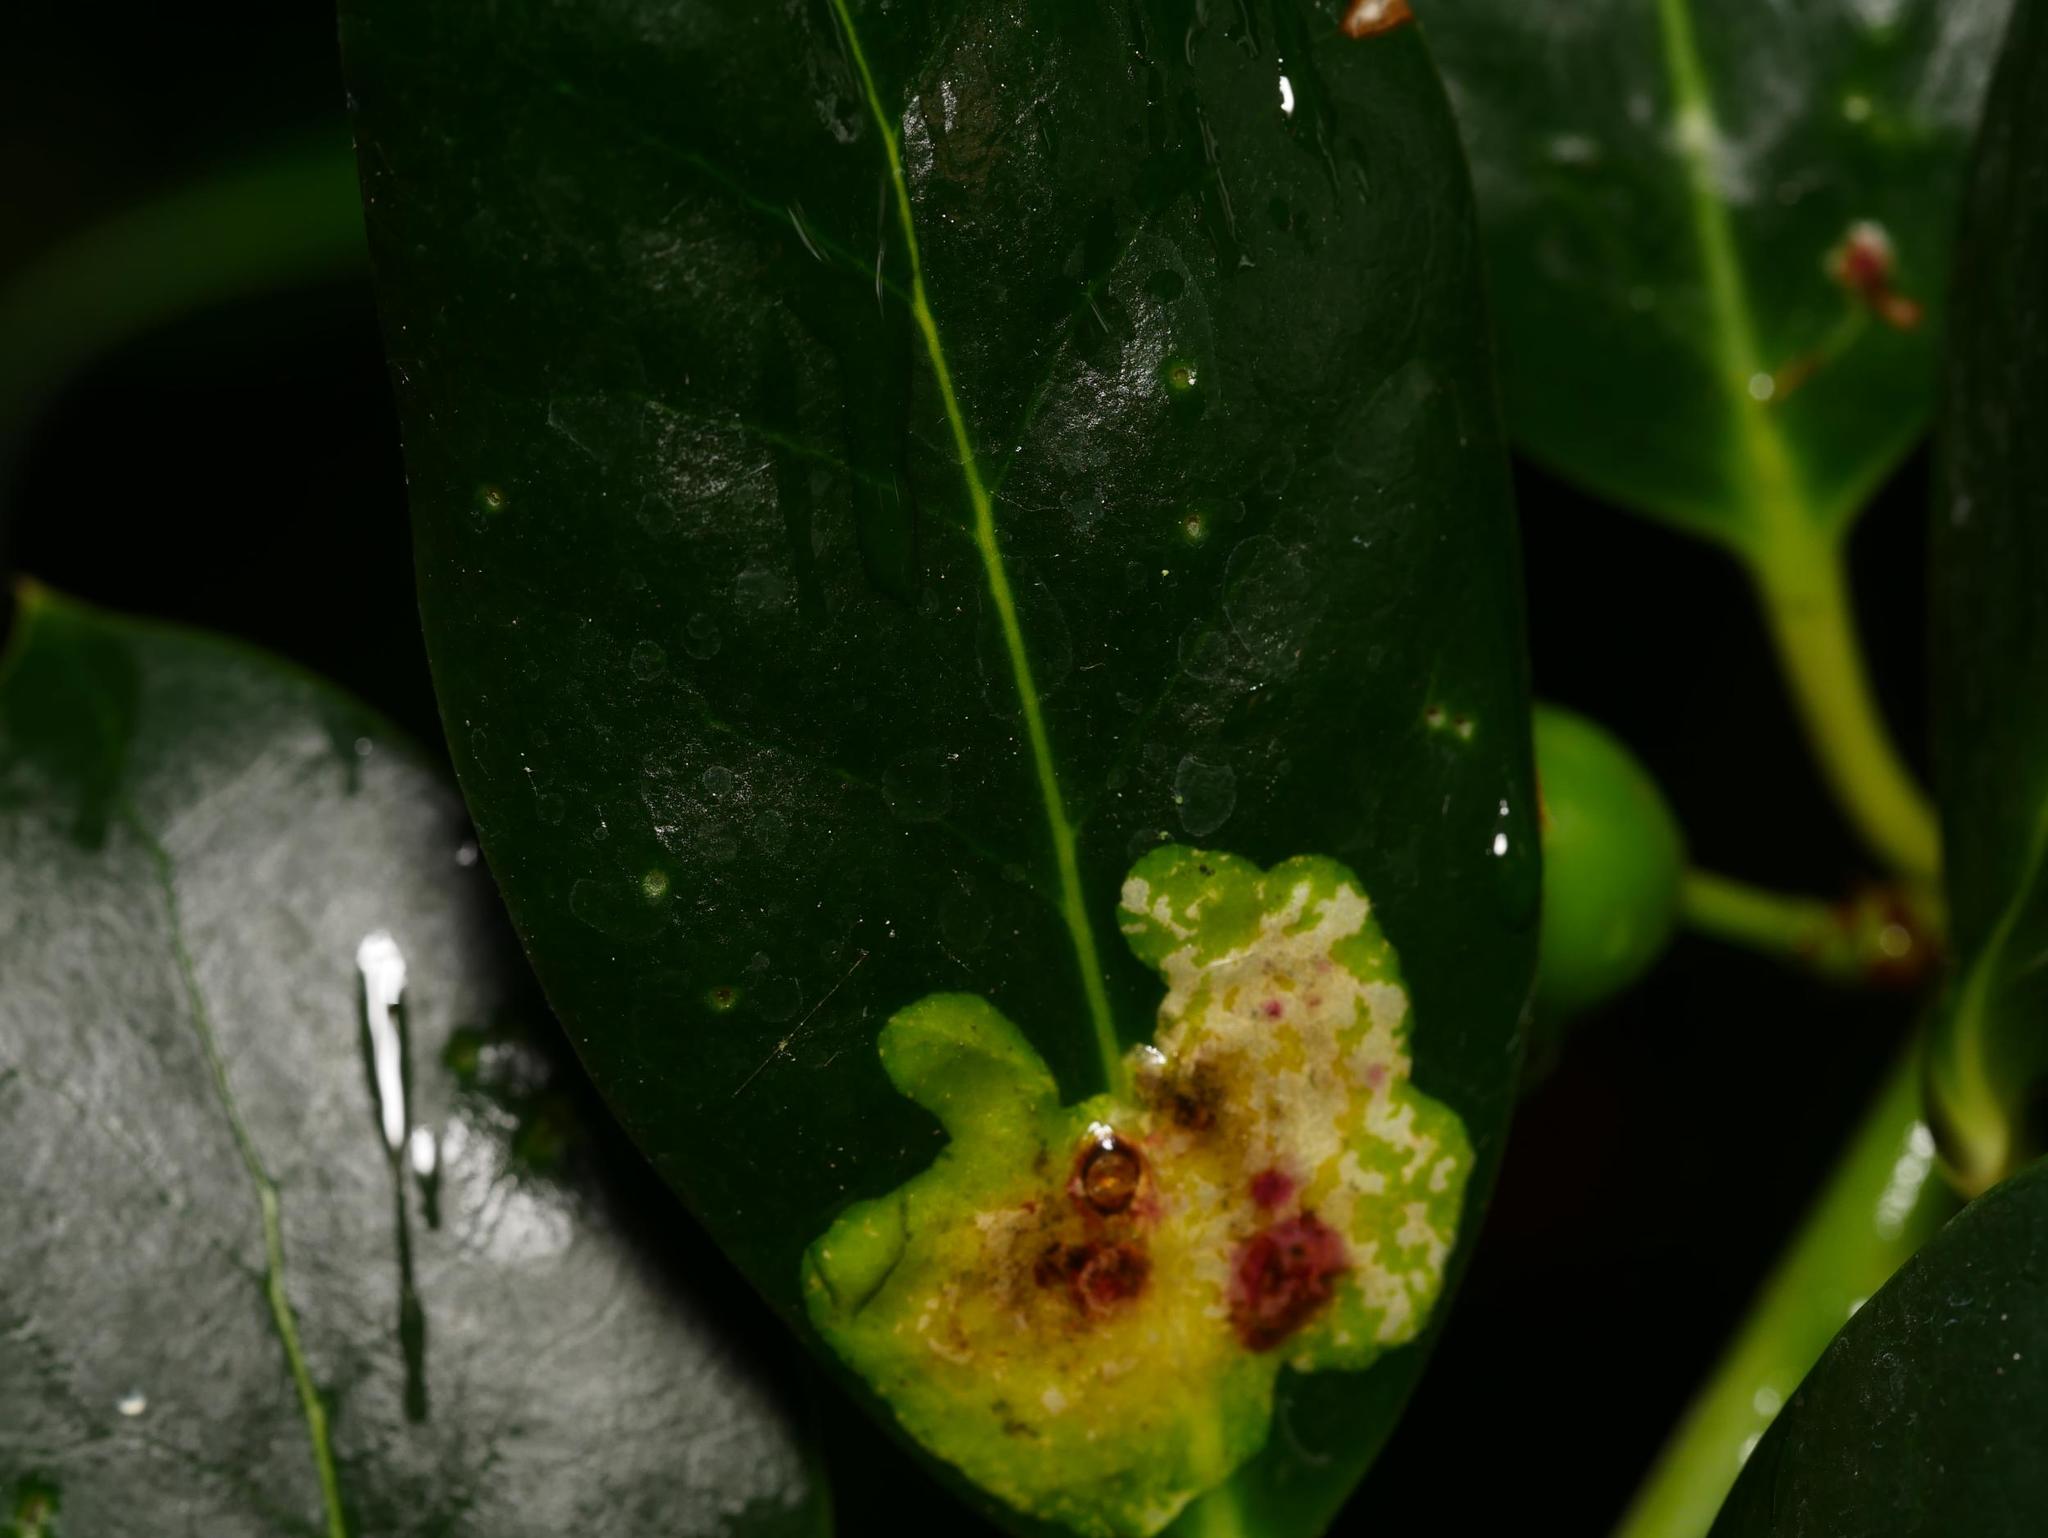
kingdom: Animalia
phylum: Arthropoda
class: Insecta
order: Diptera
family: Agromyzidae
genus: Phytomyza
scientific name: Phytomyza ilicis
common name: Holly leafminer
